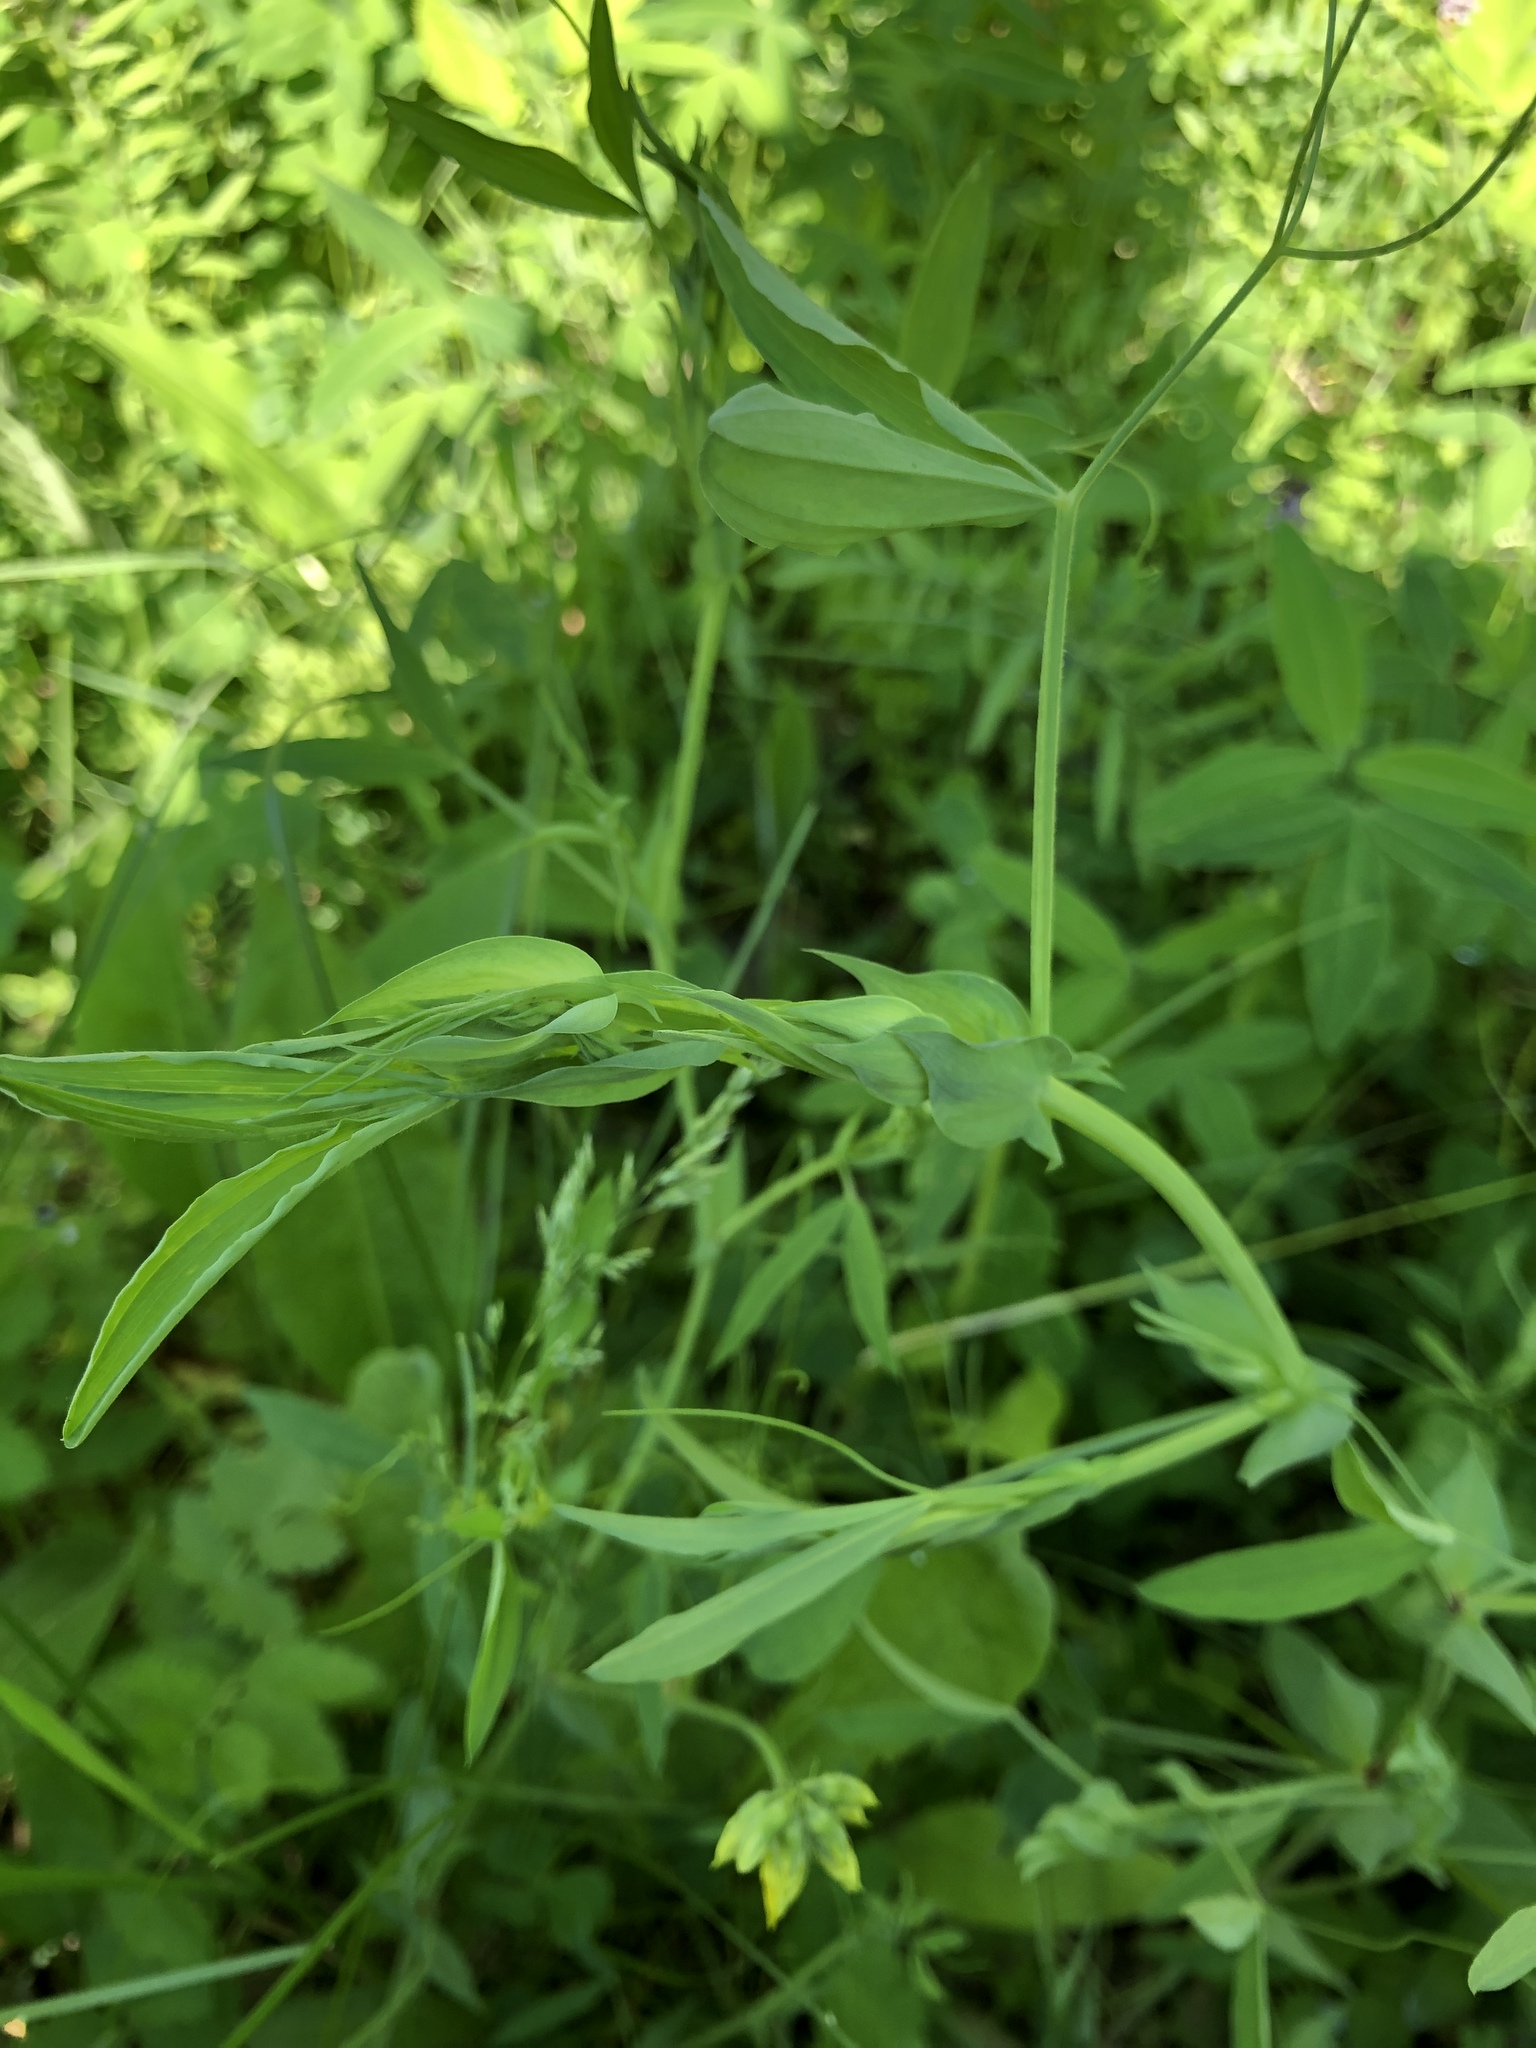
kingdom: Plantae
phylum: Tracheophyta
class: Magnoliopsida
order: Fabales
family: Fabaceae
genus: Lathyrus
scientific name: Lathyrus pratensis
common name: Meadow vetchling
